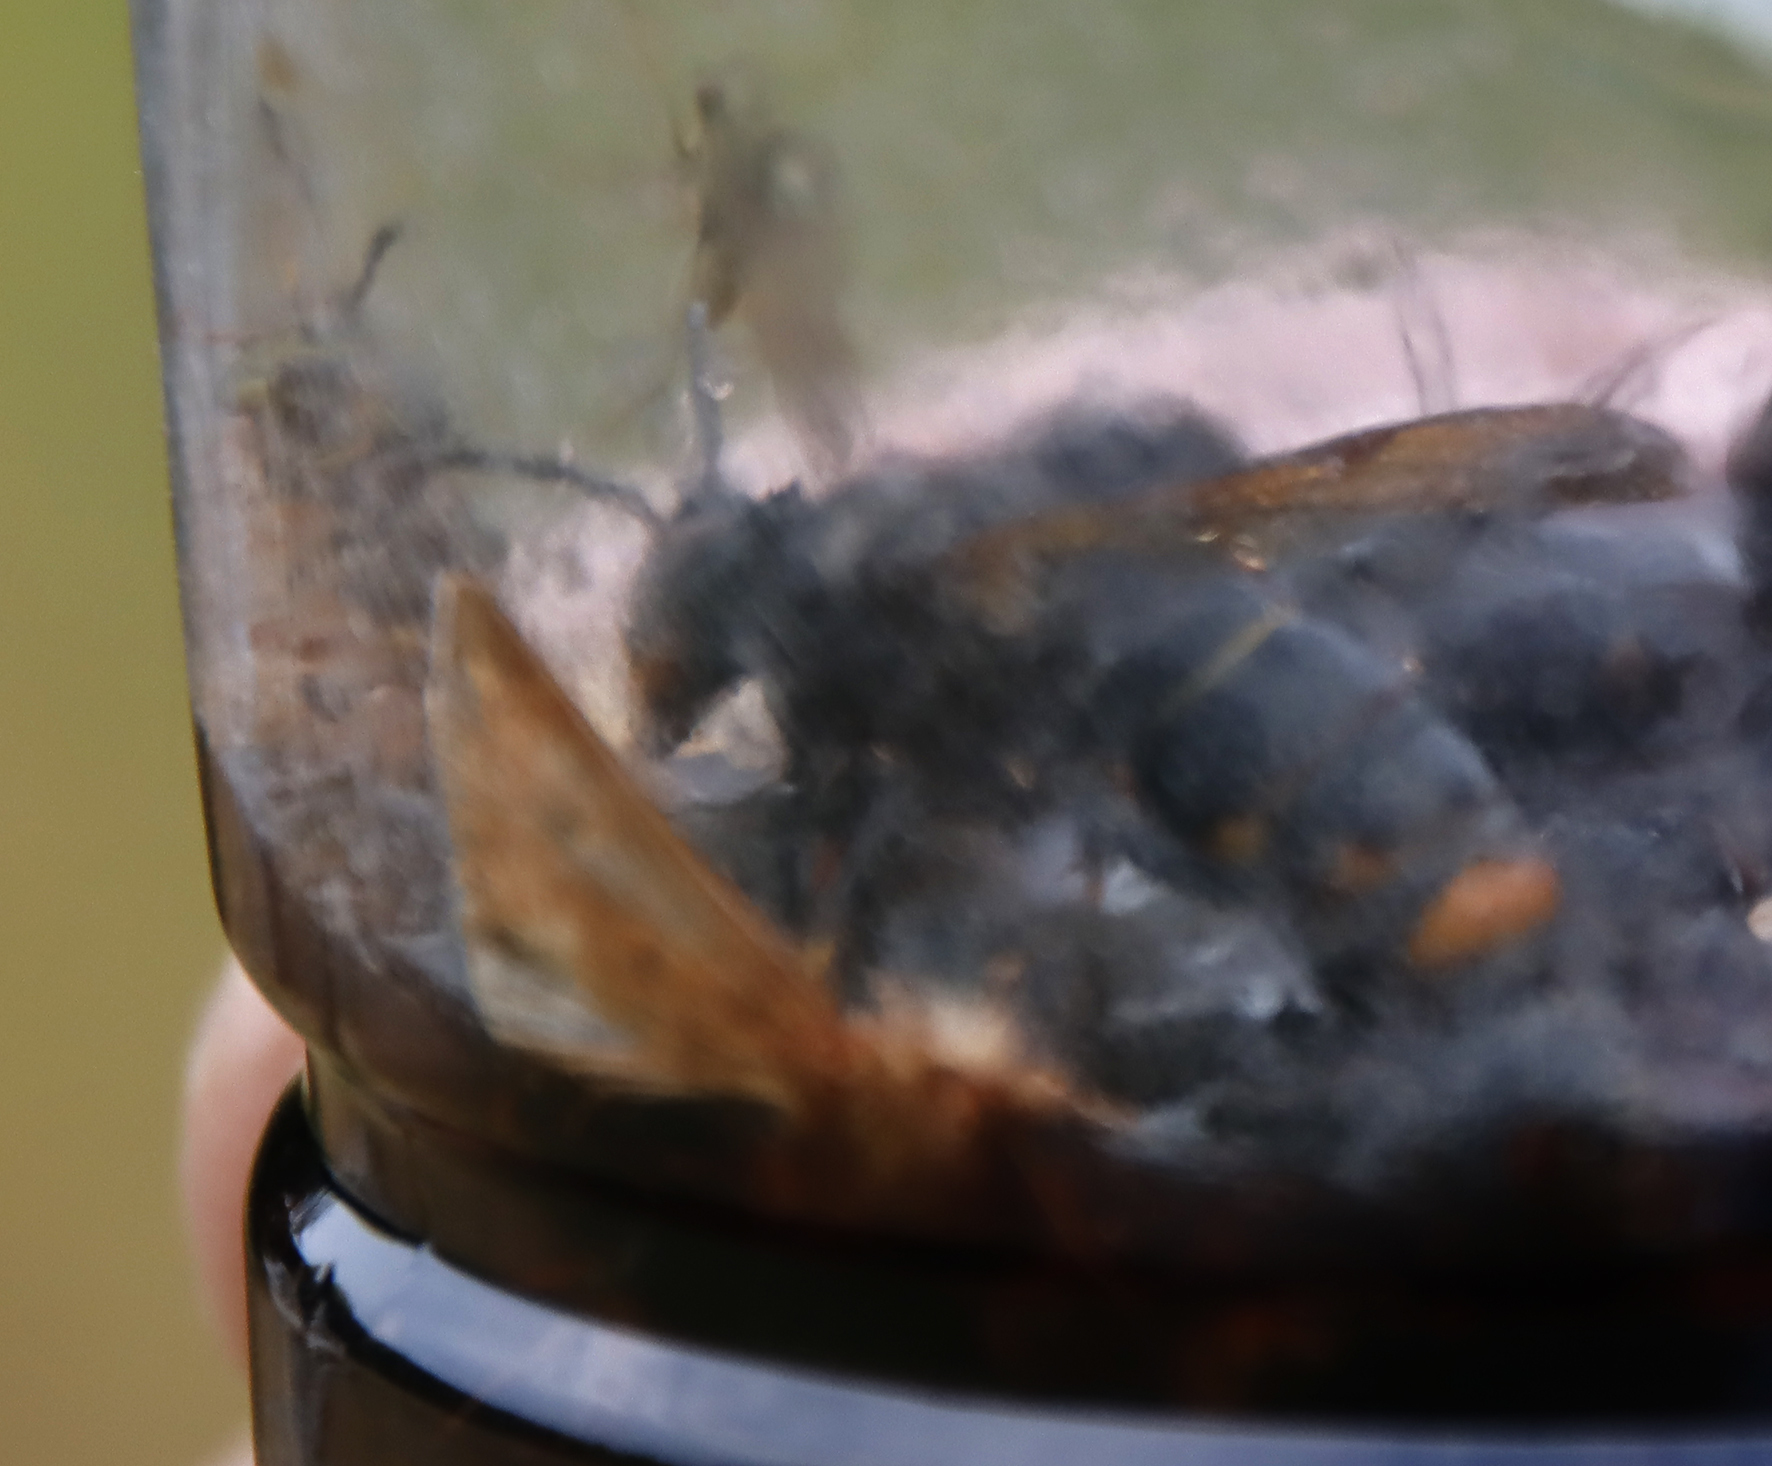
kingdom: Animalia
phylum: Arthropoda
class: Insecta
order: Hymenoptera
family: Vespidae
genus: Vespa
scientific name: Vespa velutina
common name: Asian hornet
